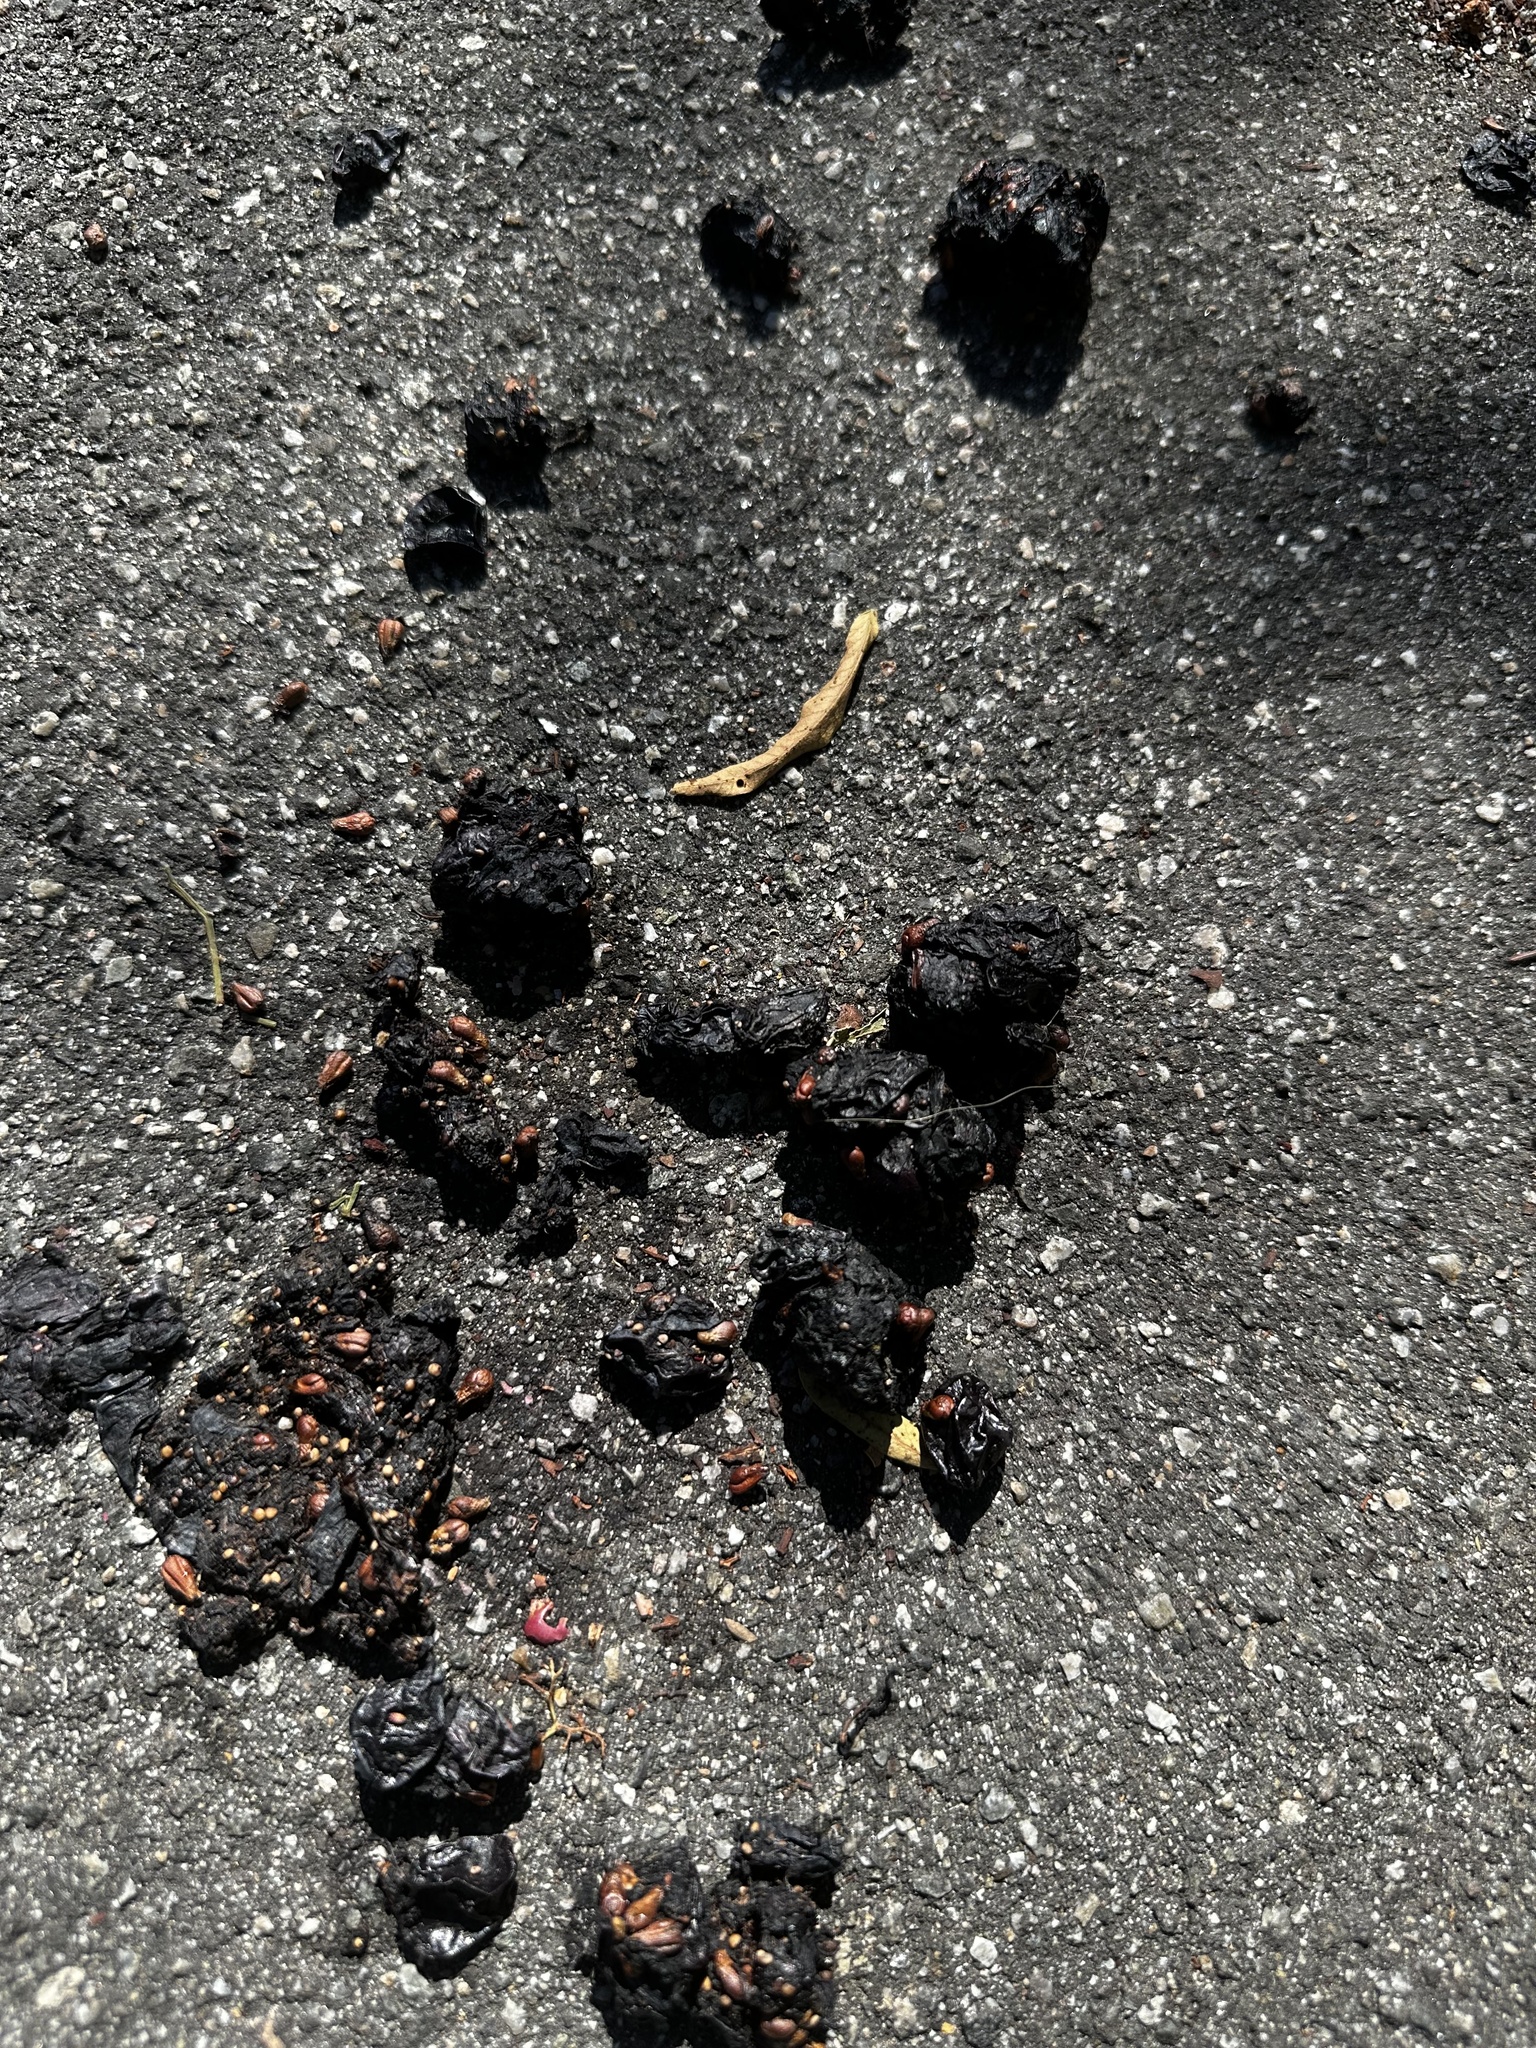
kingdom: Animalia
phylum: Chordata
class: Mammalia
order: Carnivora
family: Ursidae
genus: Ursus
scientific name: Ursus americanus
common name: American black bear
